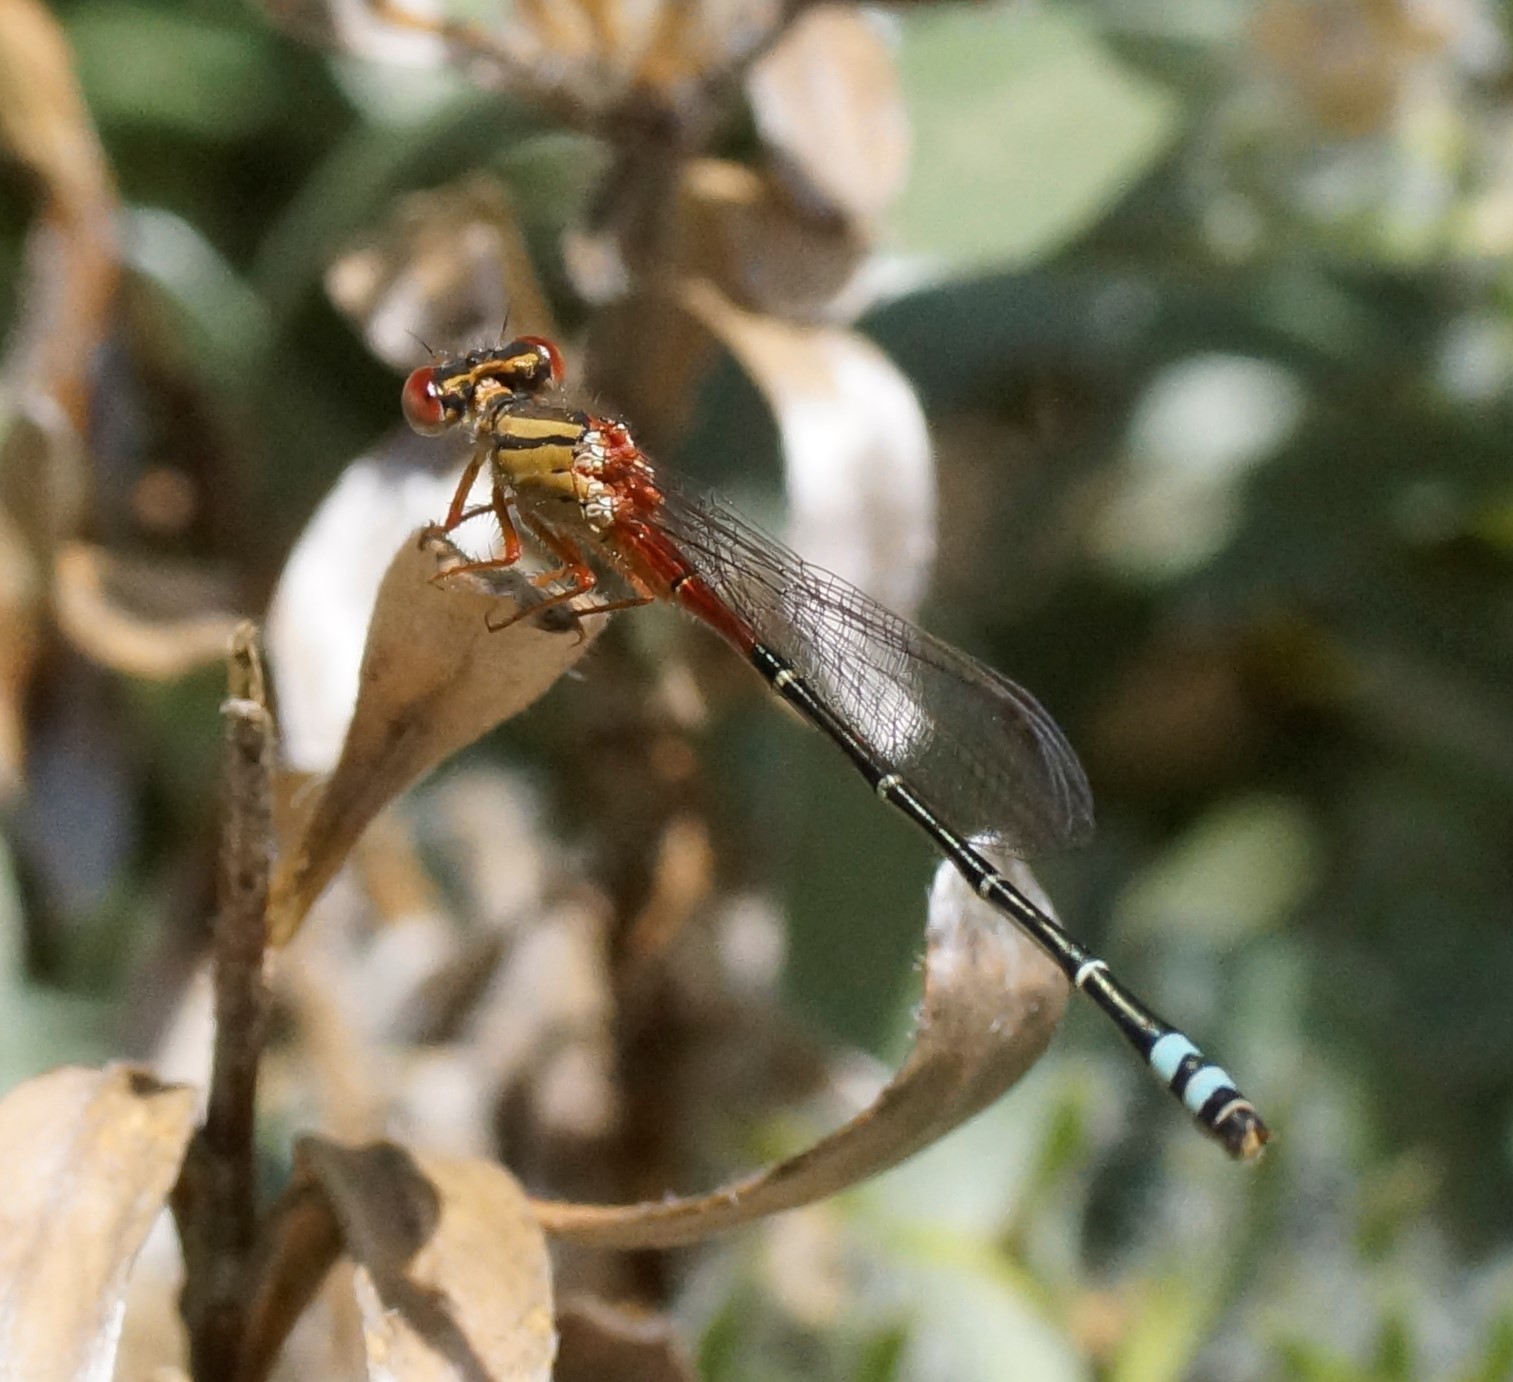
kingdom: Animalia
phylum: Arthropoda
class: Insecta
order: Odonata
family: Coenagrionidae
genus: Xanthagrion
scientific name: Xanthagrion erythroneurum
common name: Red and blue damsel
